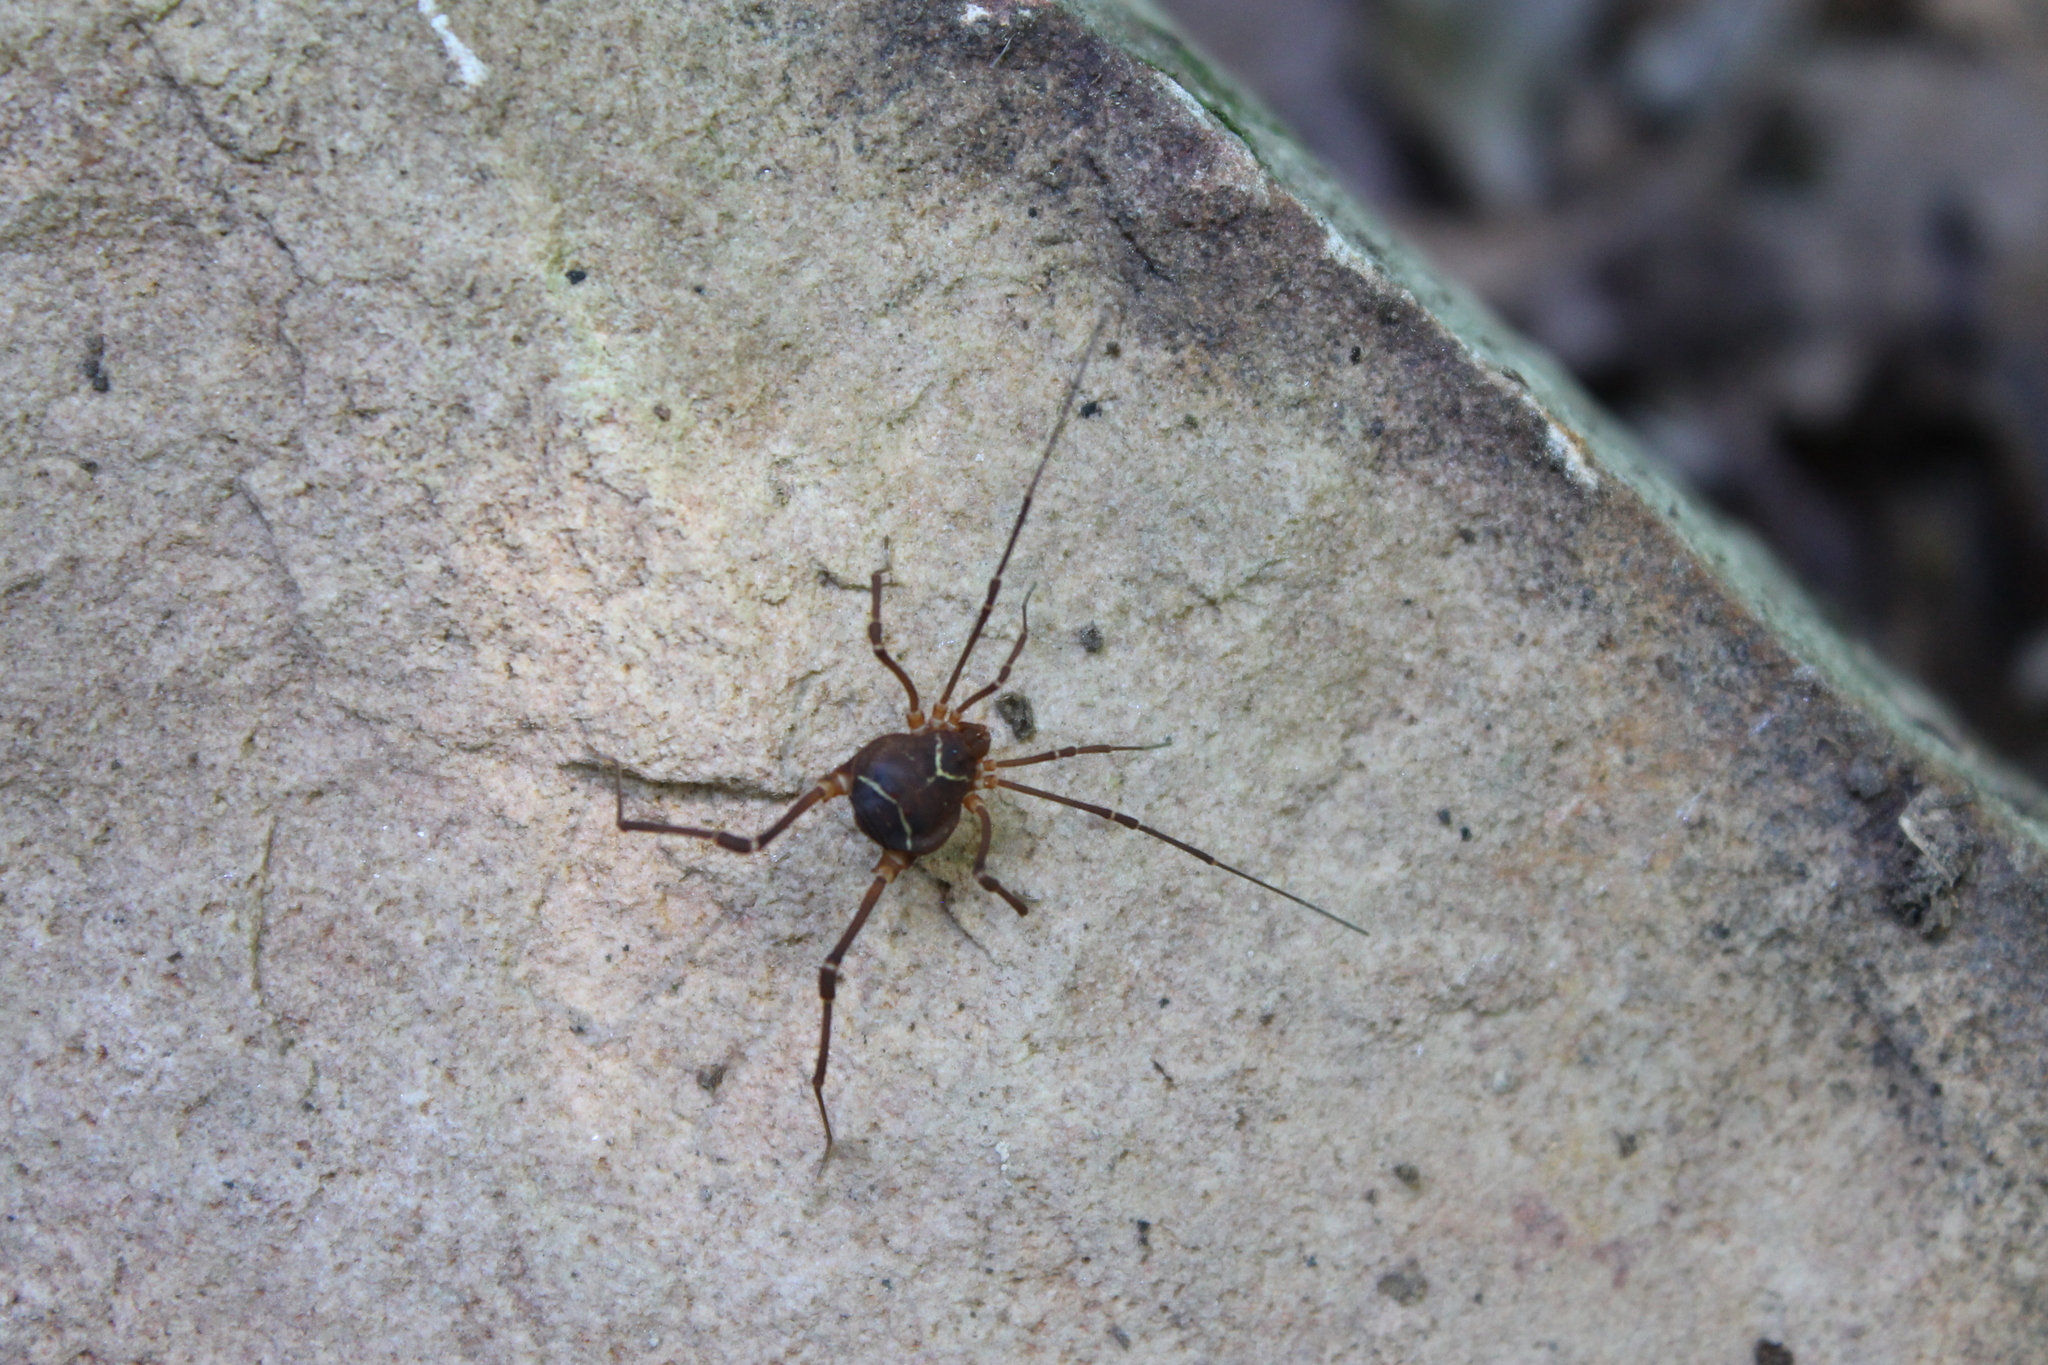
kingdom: Animalia
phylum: Arthropoda
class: Arachnida
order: Opiliones
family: Cosmetidae
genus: Libitioides
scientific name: Libitioides sayi
